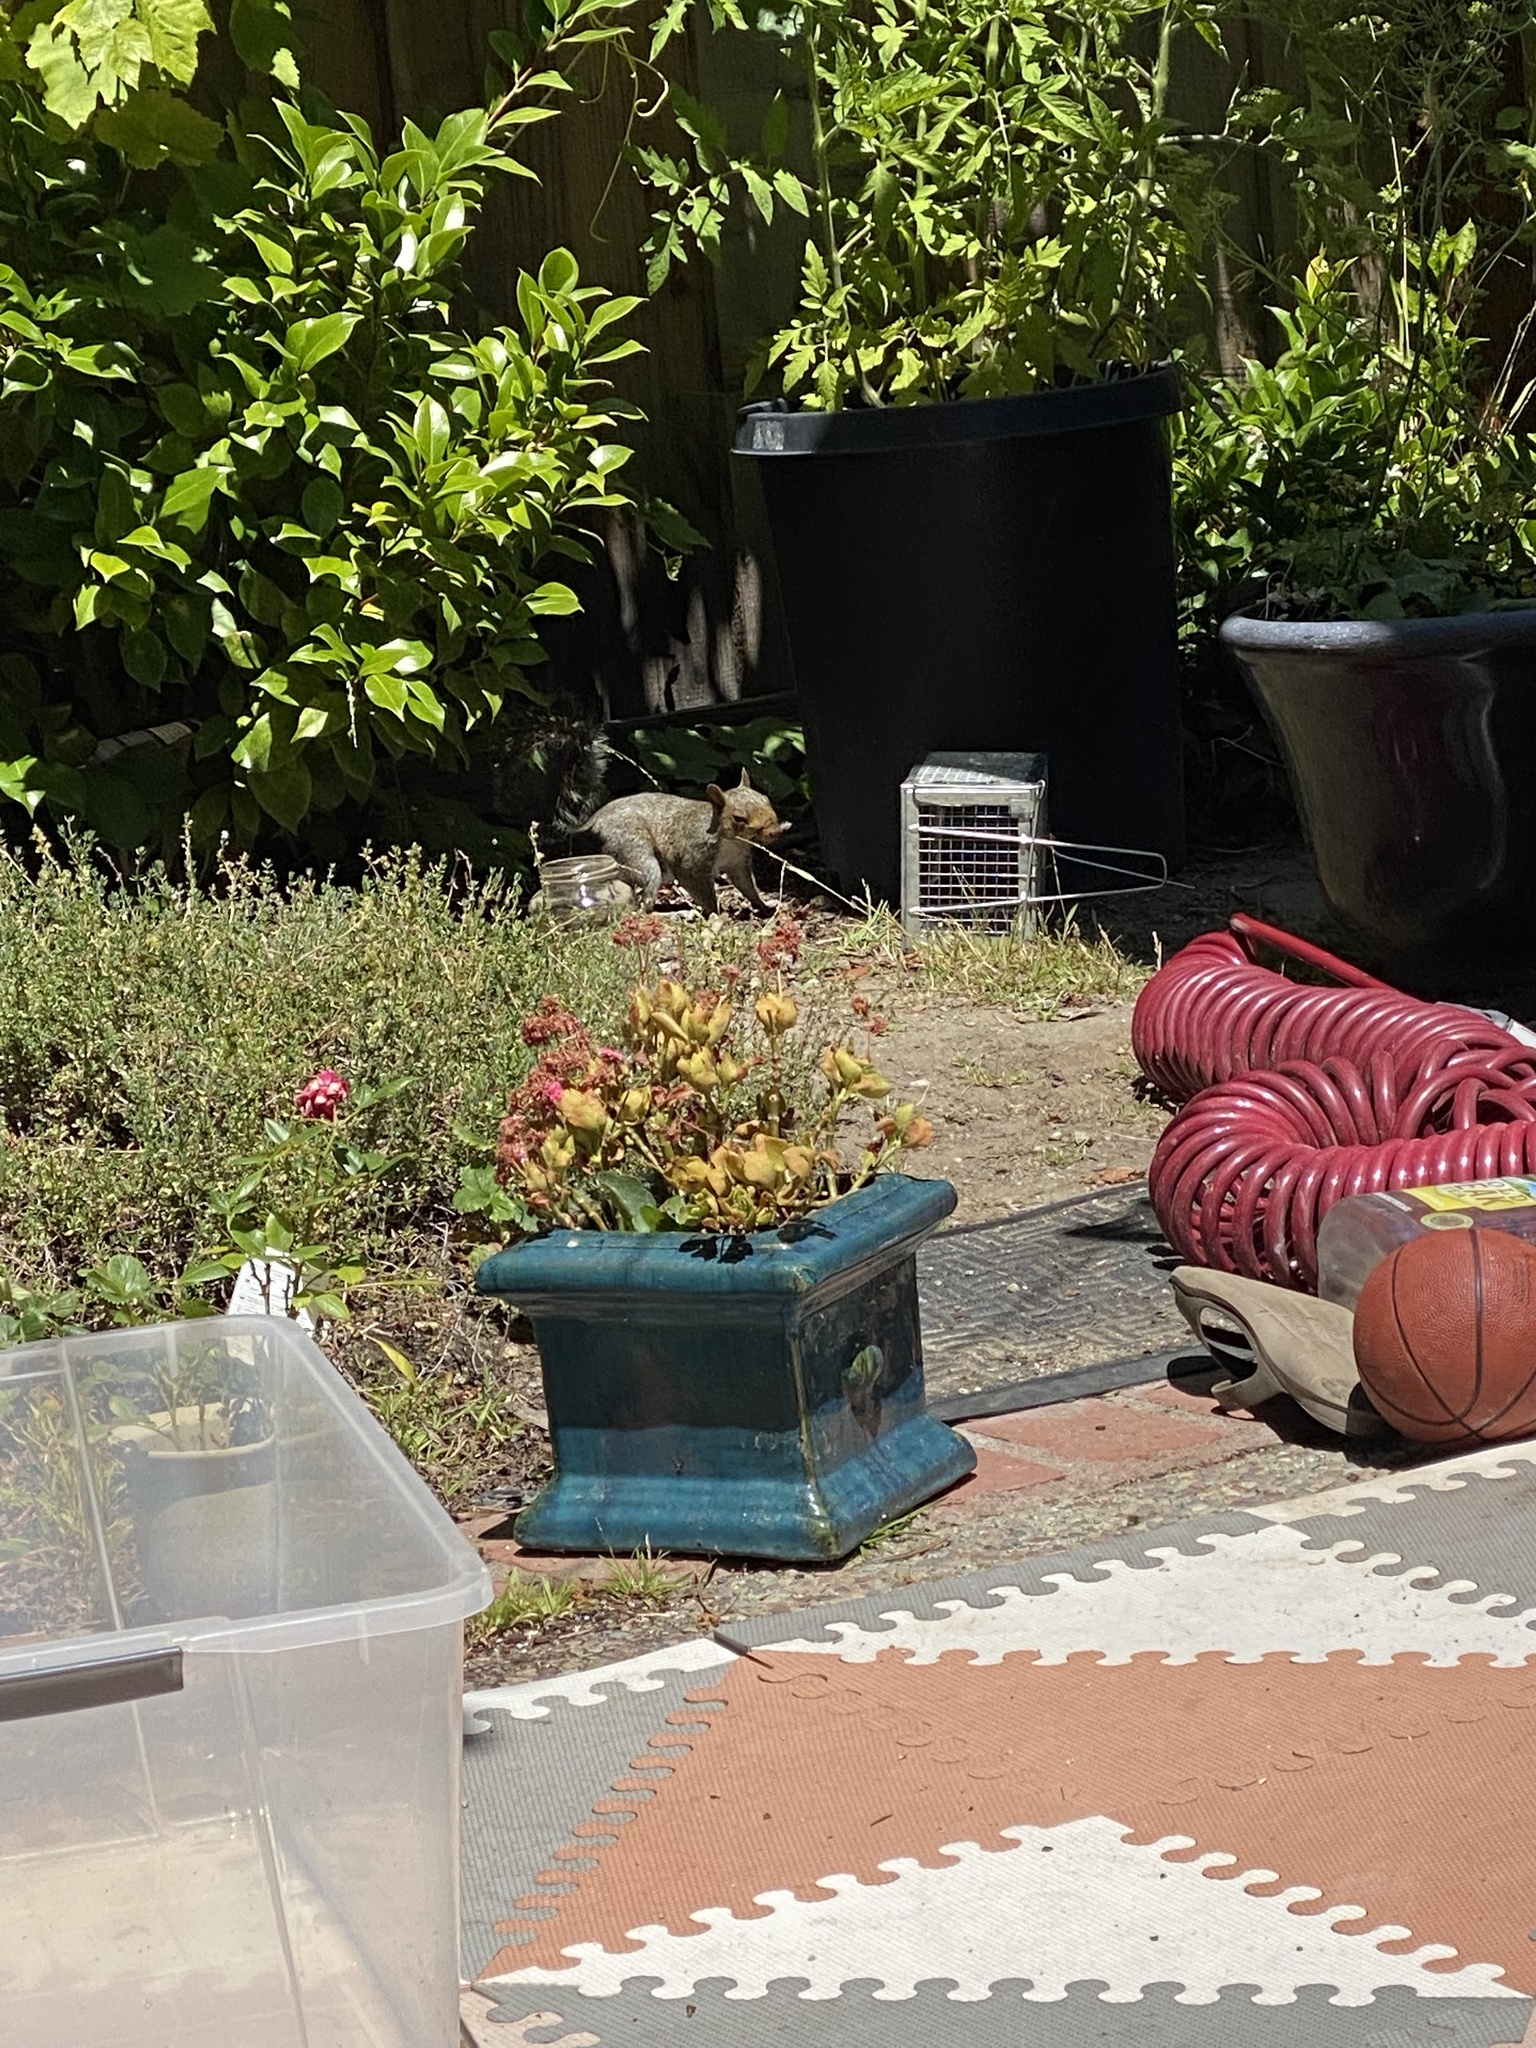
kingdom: Animalia
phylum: Chordata
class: Mammalia
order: Rodentia
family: Sciuridae
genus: Sciurus
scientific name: Sciurus carolinensis
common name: Eastern gray squirrel
